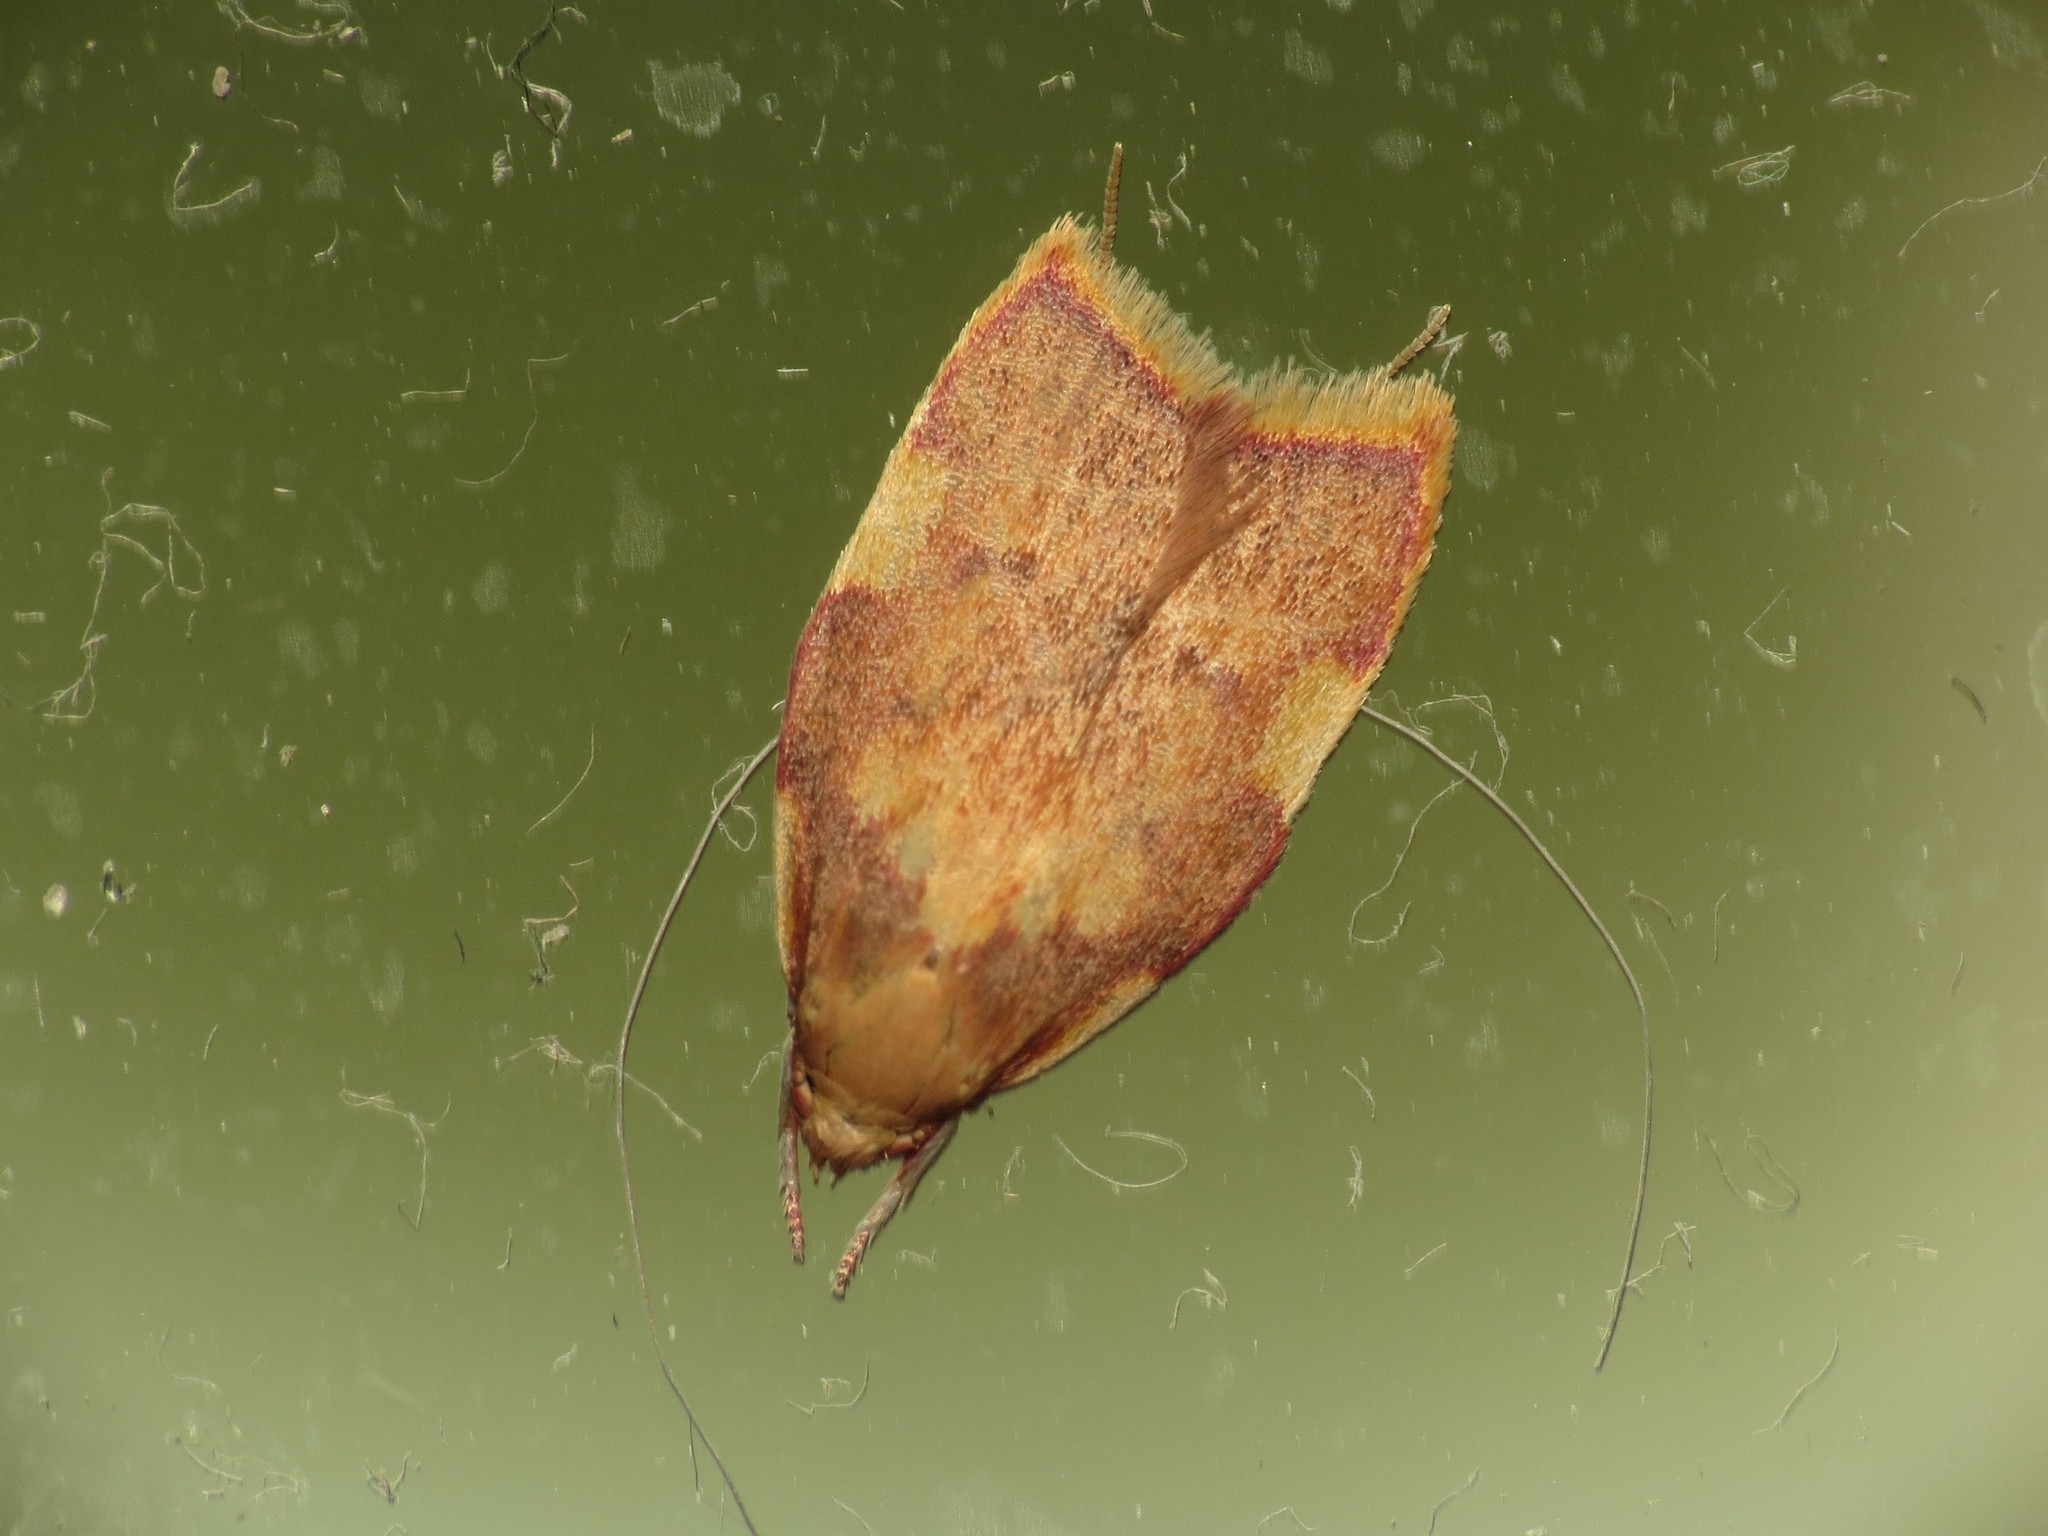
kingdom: Animalia
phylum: Arthropoda
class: Insecta
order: Lepidoptera
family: Peleopodidae
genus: Carcina
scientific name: Carcina quercana
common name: Moth
